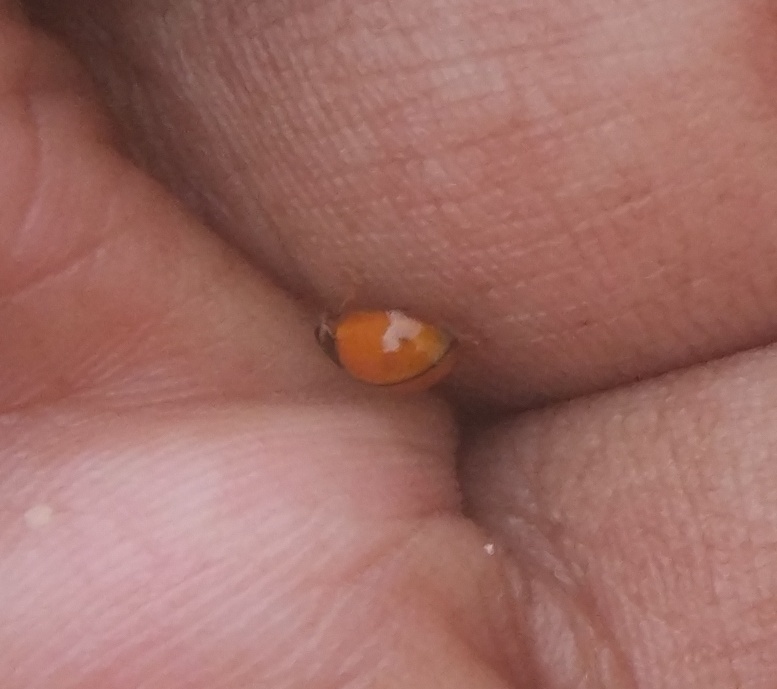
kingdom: Animalia
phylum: Arthropoda
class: Insecta
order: Coleoptera
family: Coccinellidae
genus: Propylea
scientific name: Propylea
